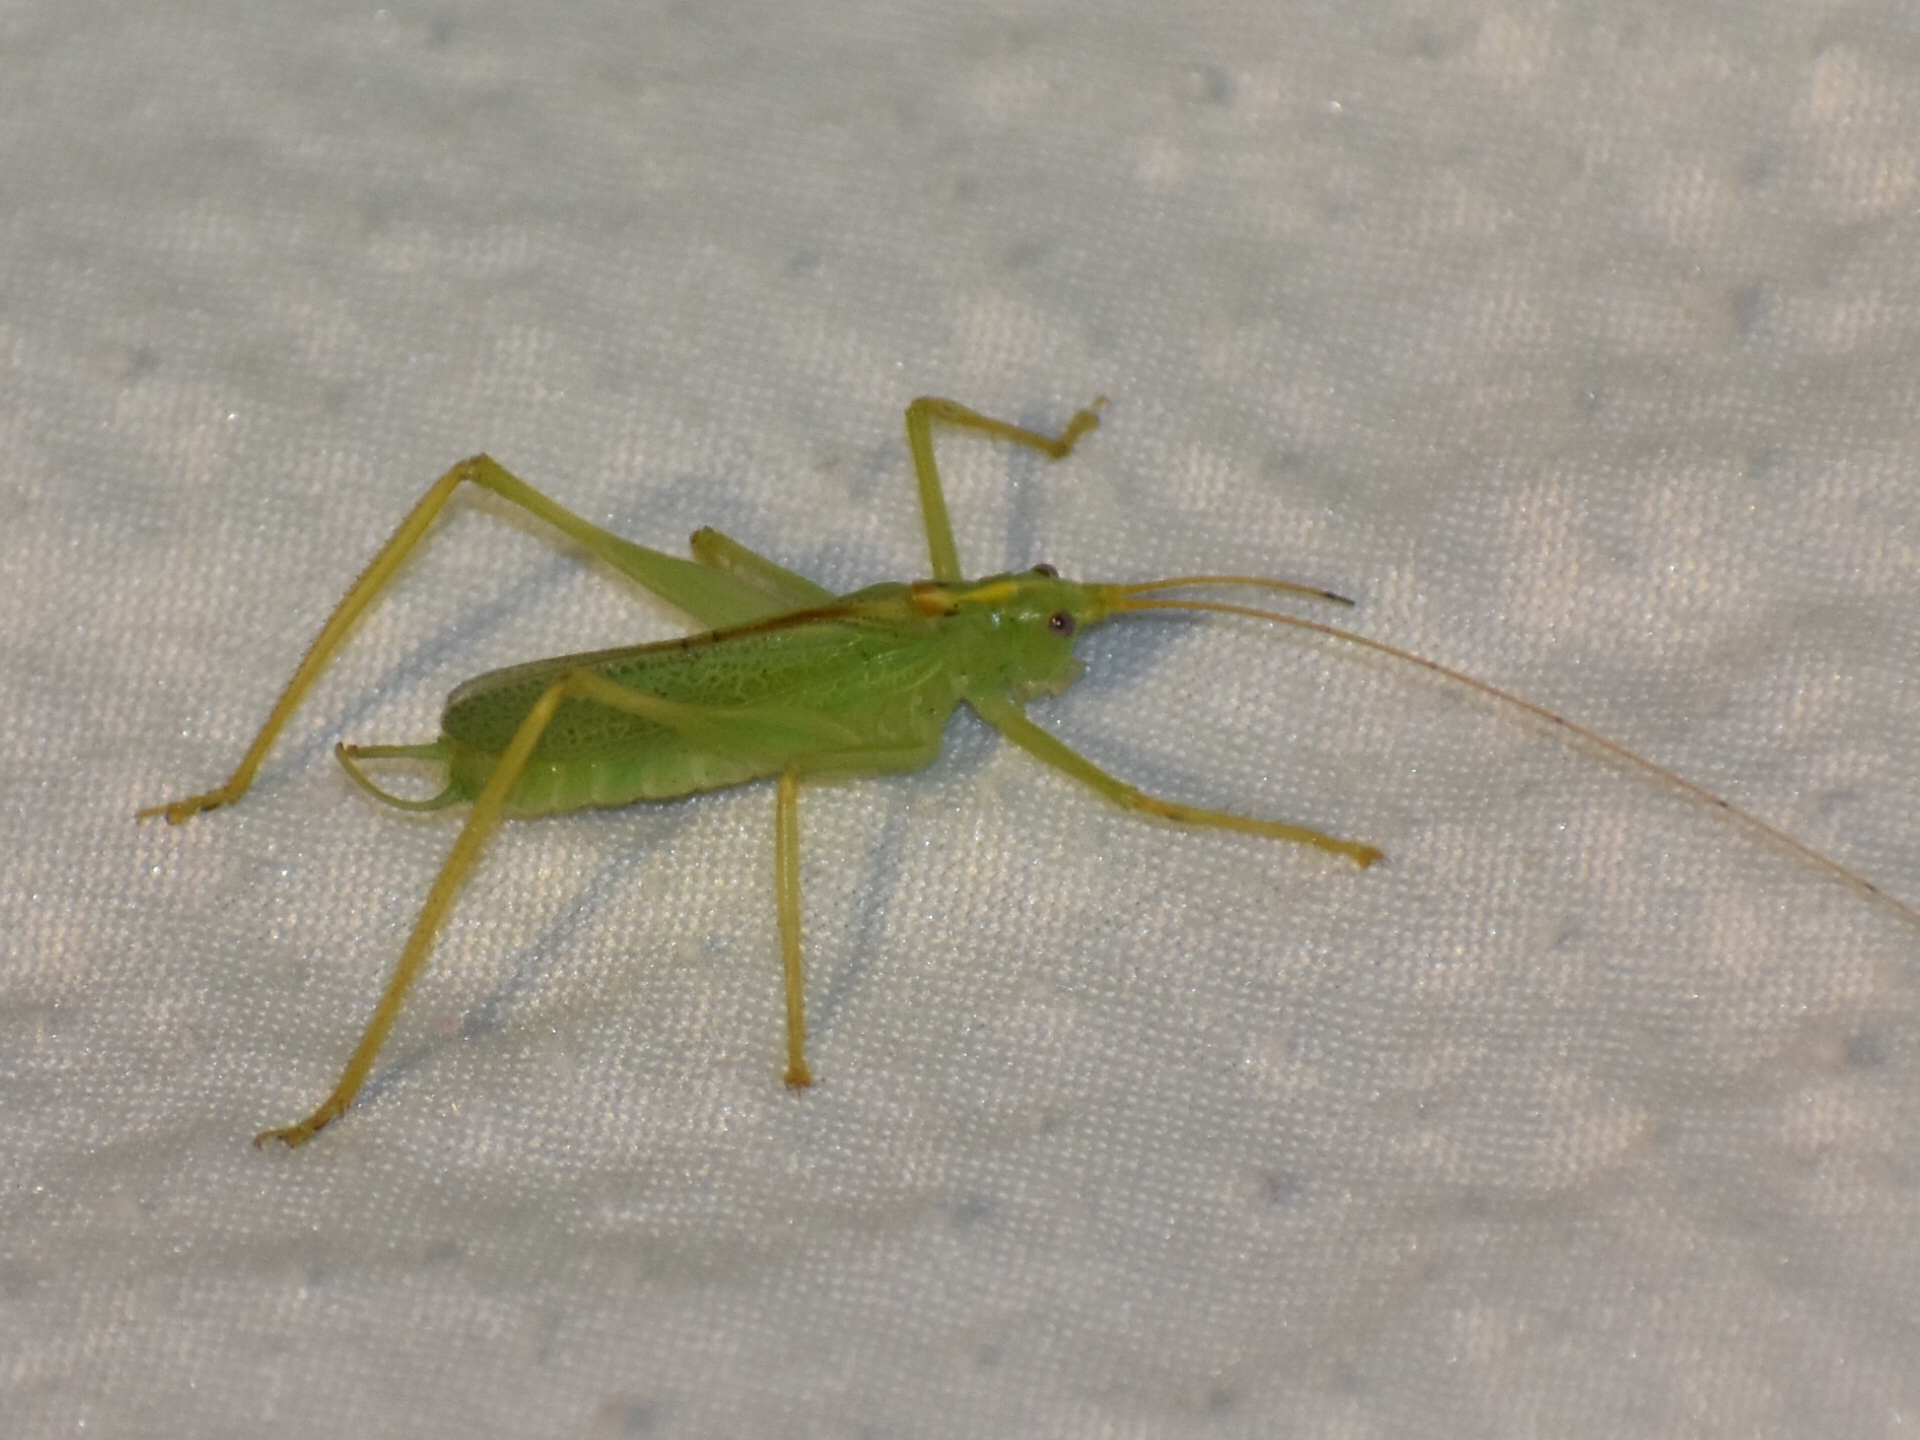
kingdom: Animalia
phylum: Arthropoda
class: Insecta
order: Orthoptera
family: Tettigoniidae
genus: Meconema
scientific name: Meconema thalassinum
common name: Oak bush-cricket
